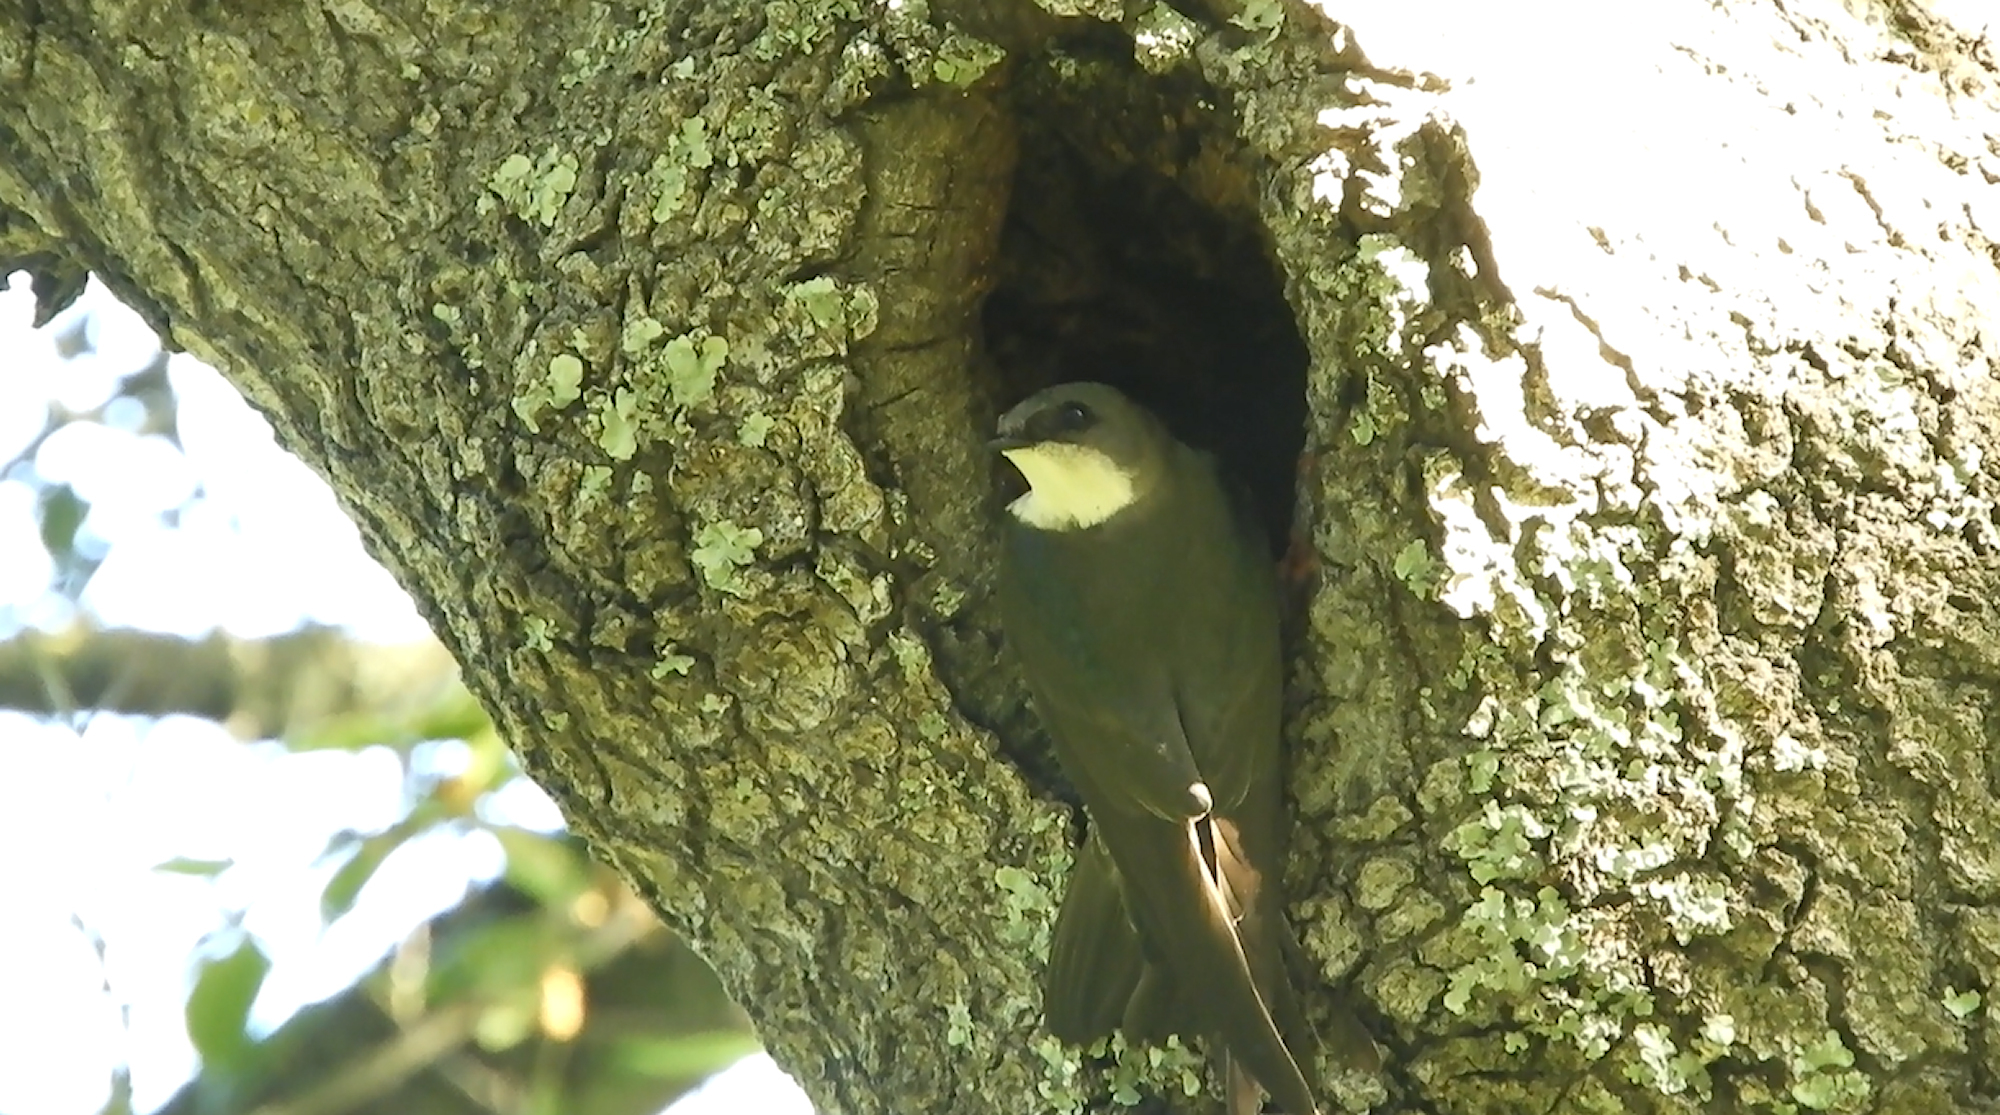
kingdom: Animalia
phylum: Chordata
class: Aves
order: Passeriformes
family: Hirundinidae
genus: Tachycineta
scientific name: Tachycineta bicolor
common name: Tree swallow
